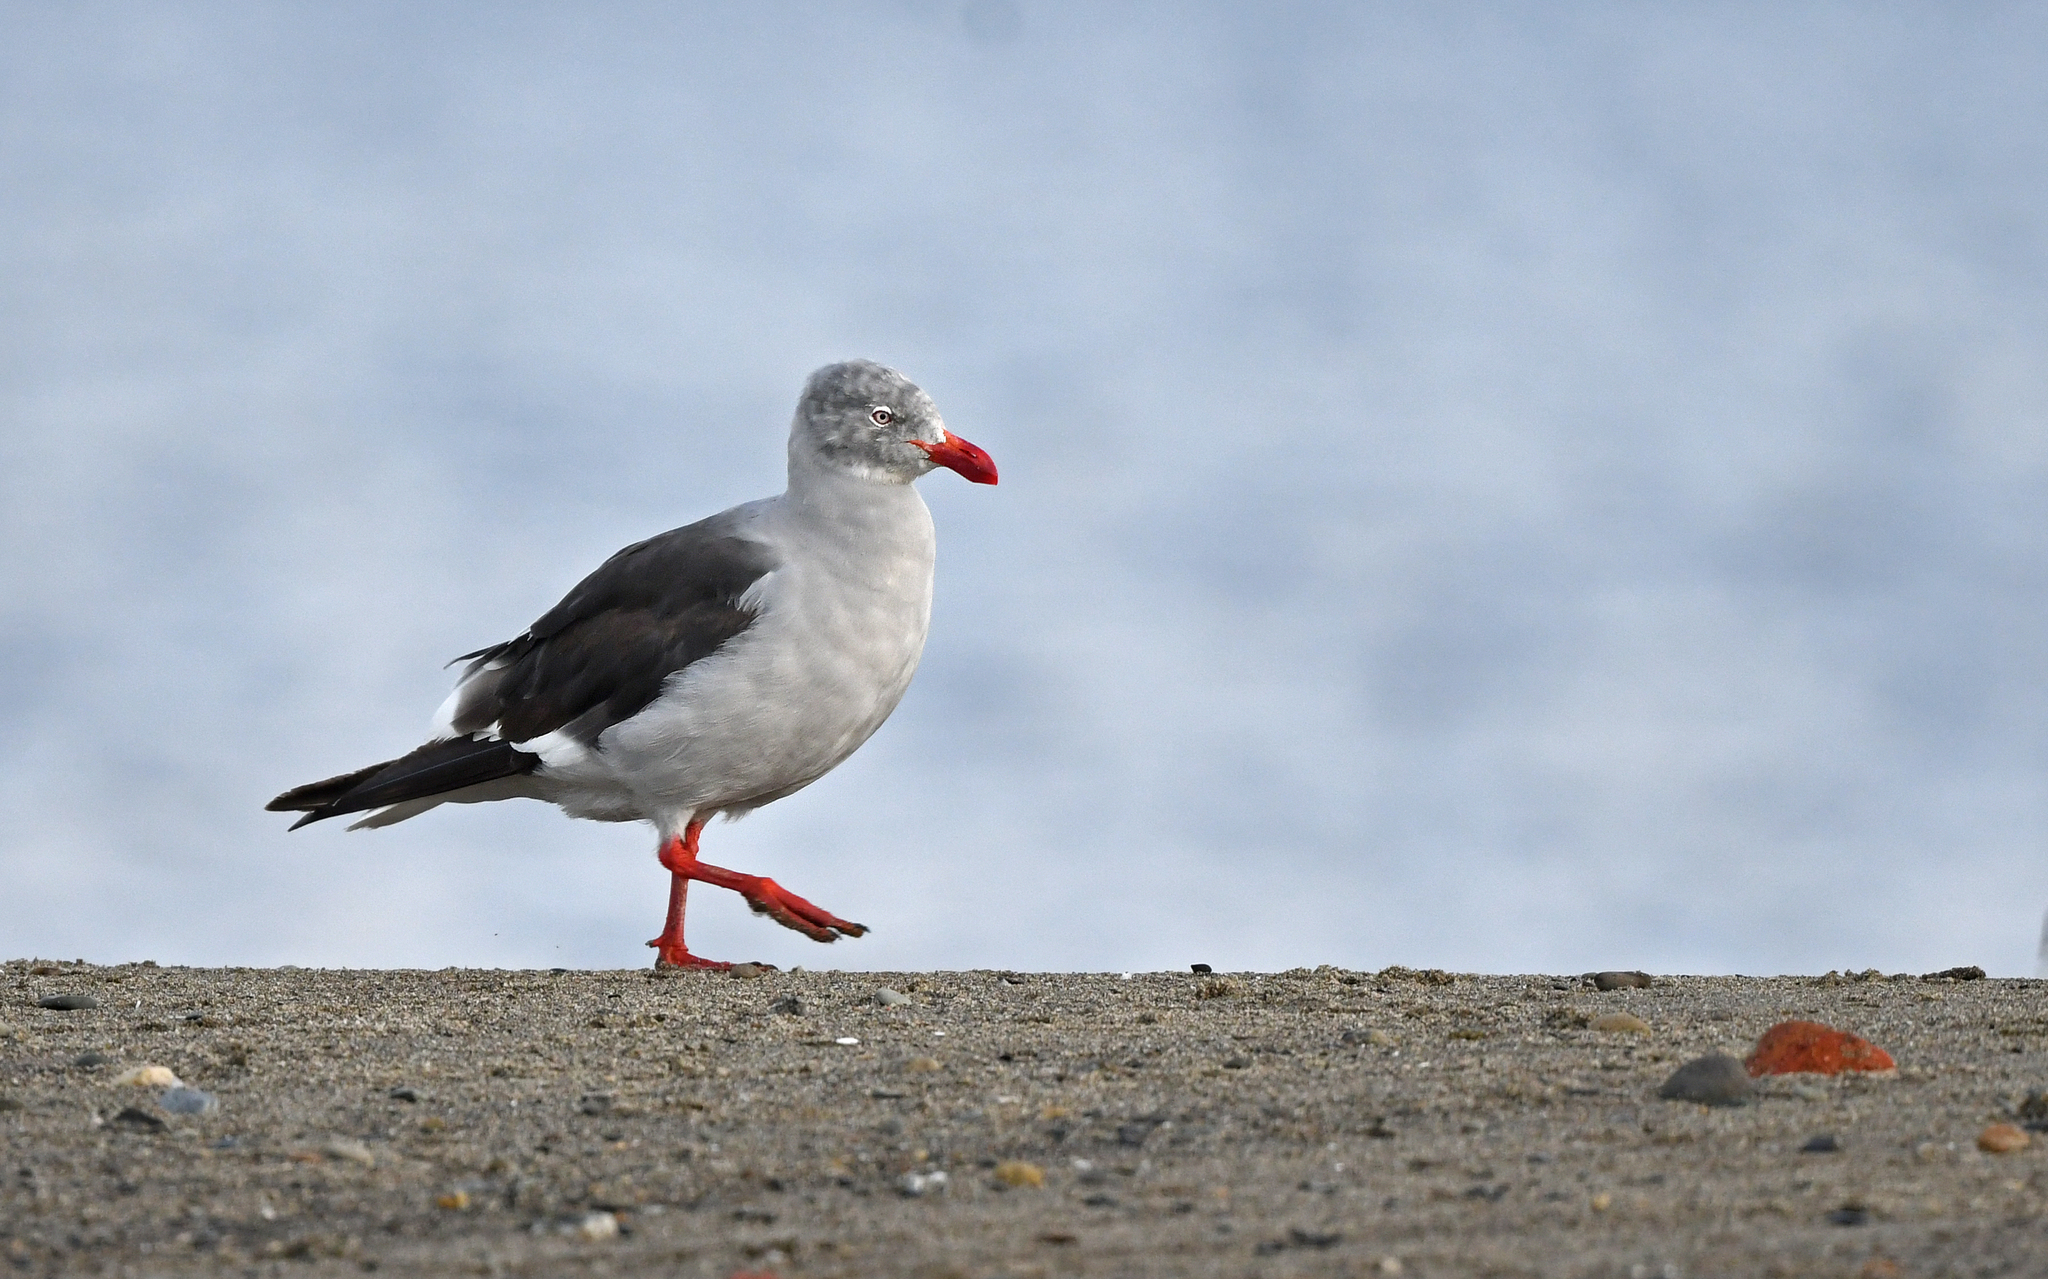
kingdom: Animalia
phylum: Chordata
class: Aves
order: Charadriiformes
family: Laridae
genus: Leucophaeus
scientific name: Leucophaeus scoresbii
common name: Dolphin gull
